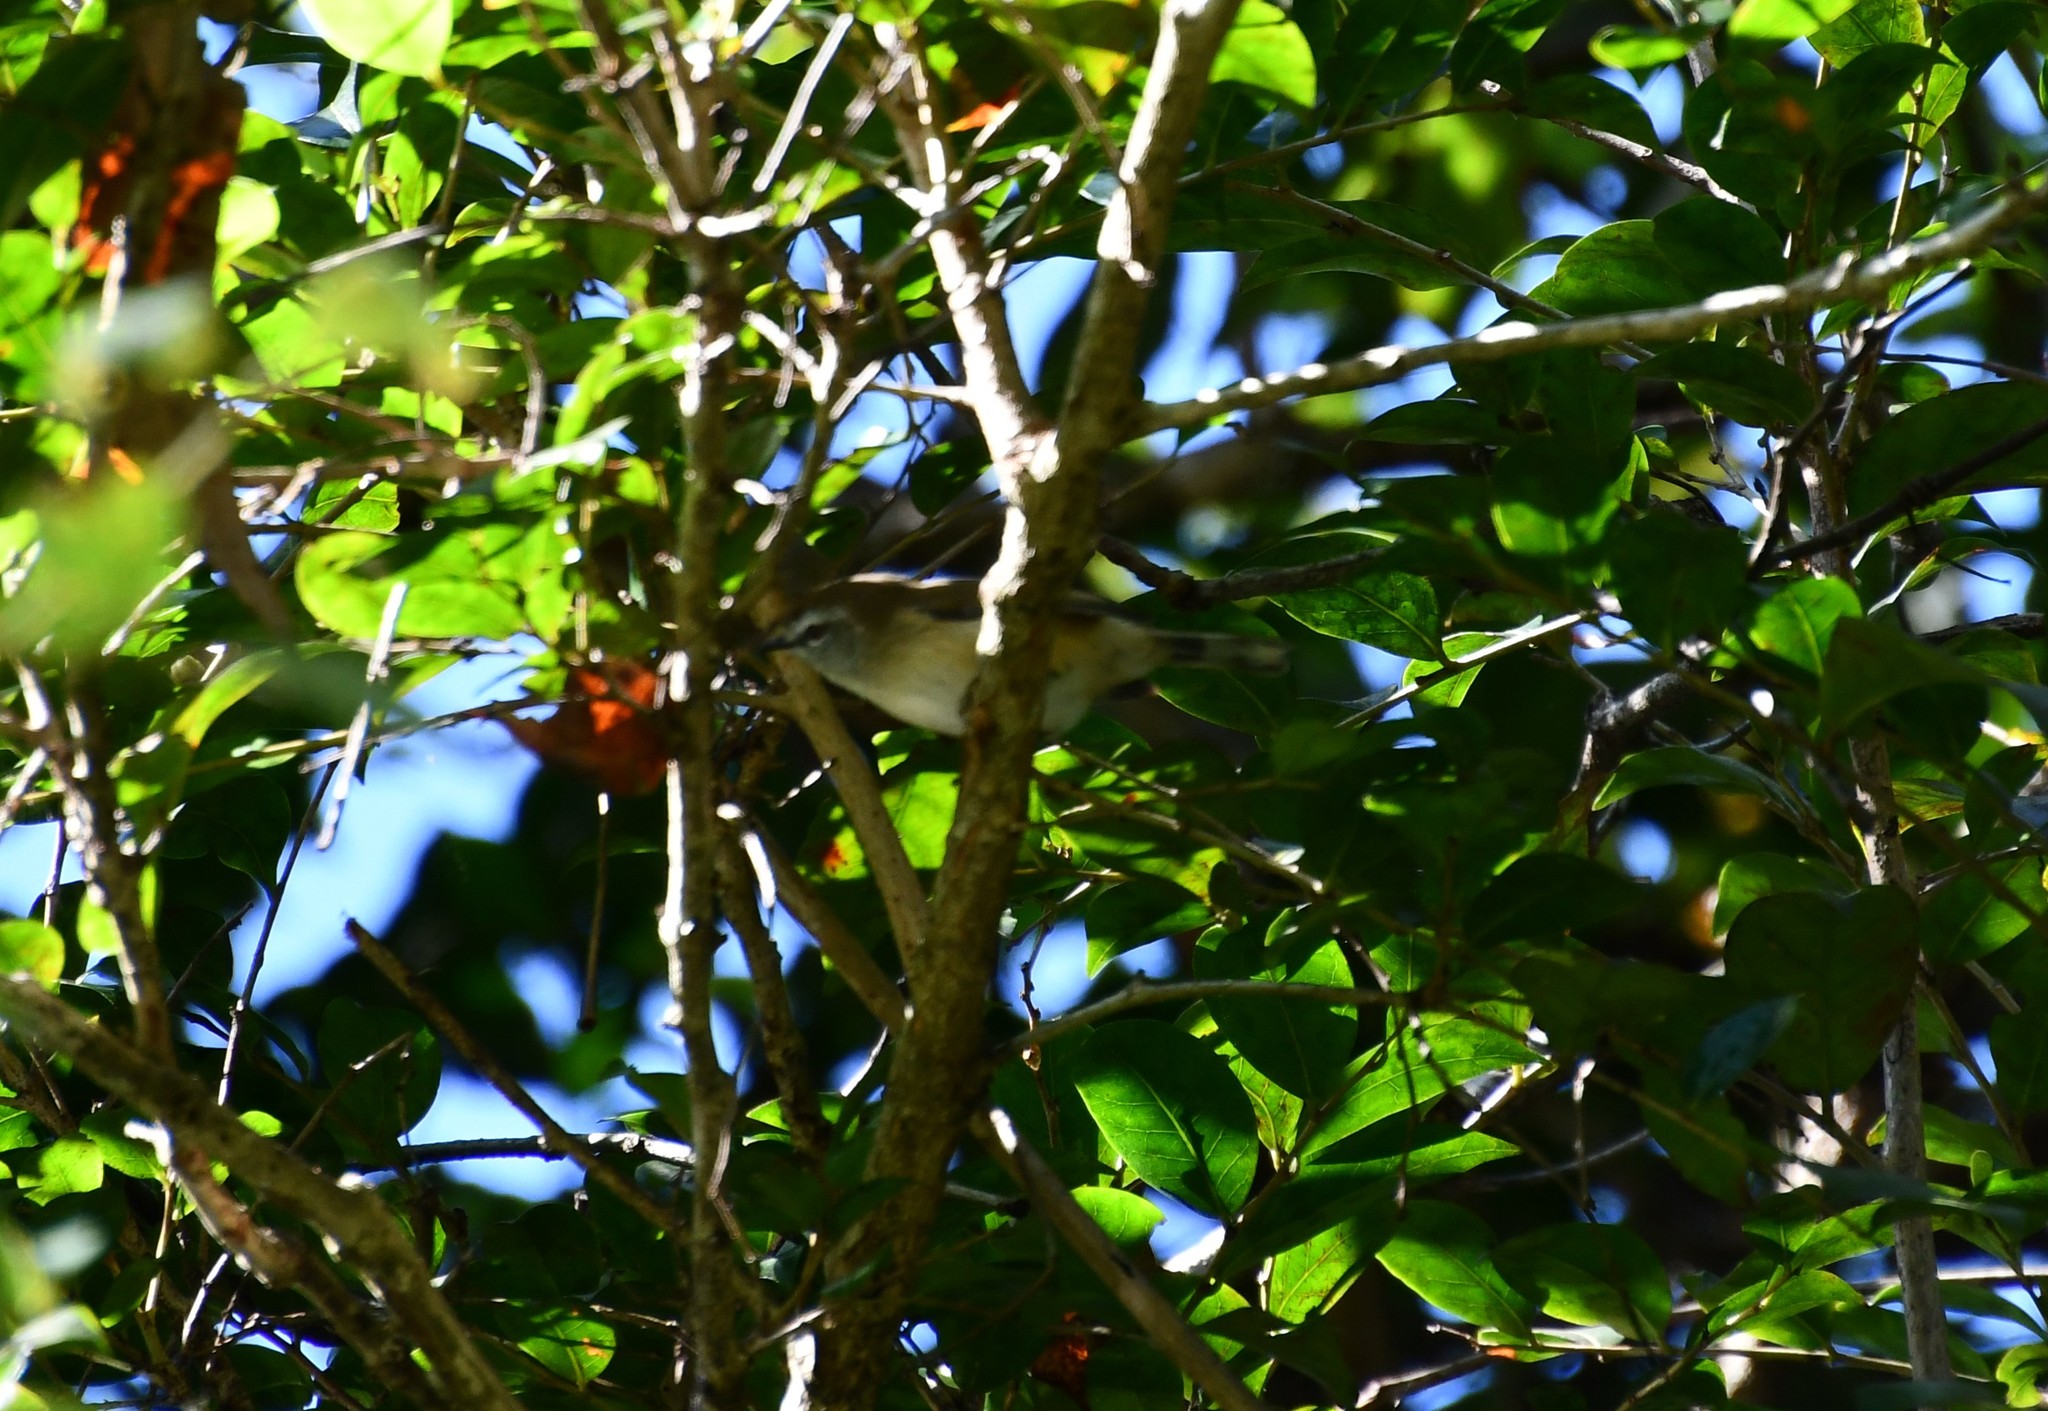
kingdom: Animalia
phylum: Chordata
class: Aves
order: Passeriformes
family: Acanthizidae
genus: Gerygone
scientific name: Gerygone mouki
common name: Brown gerygone
